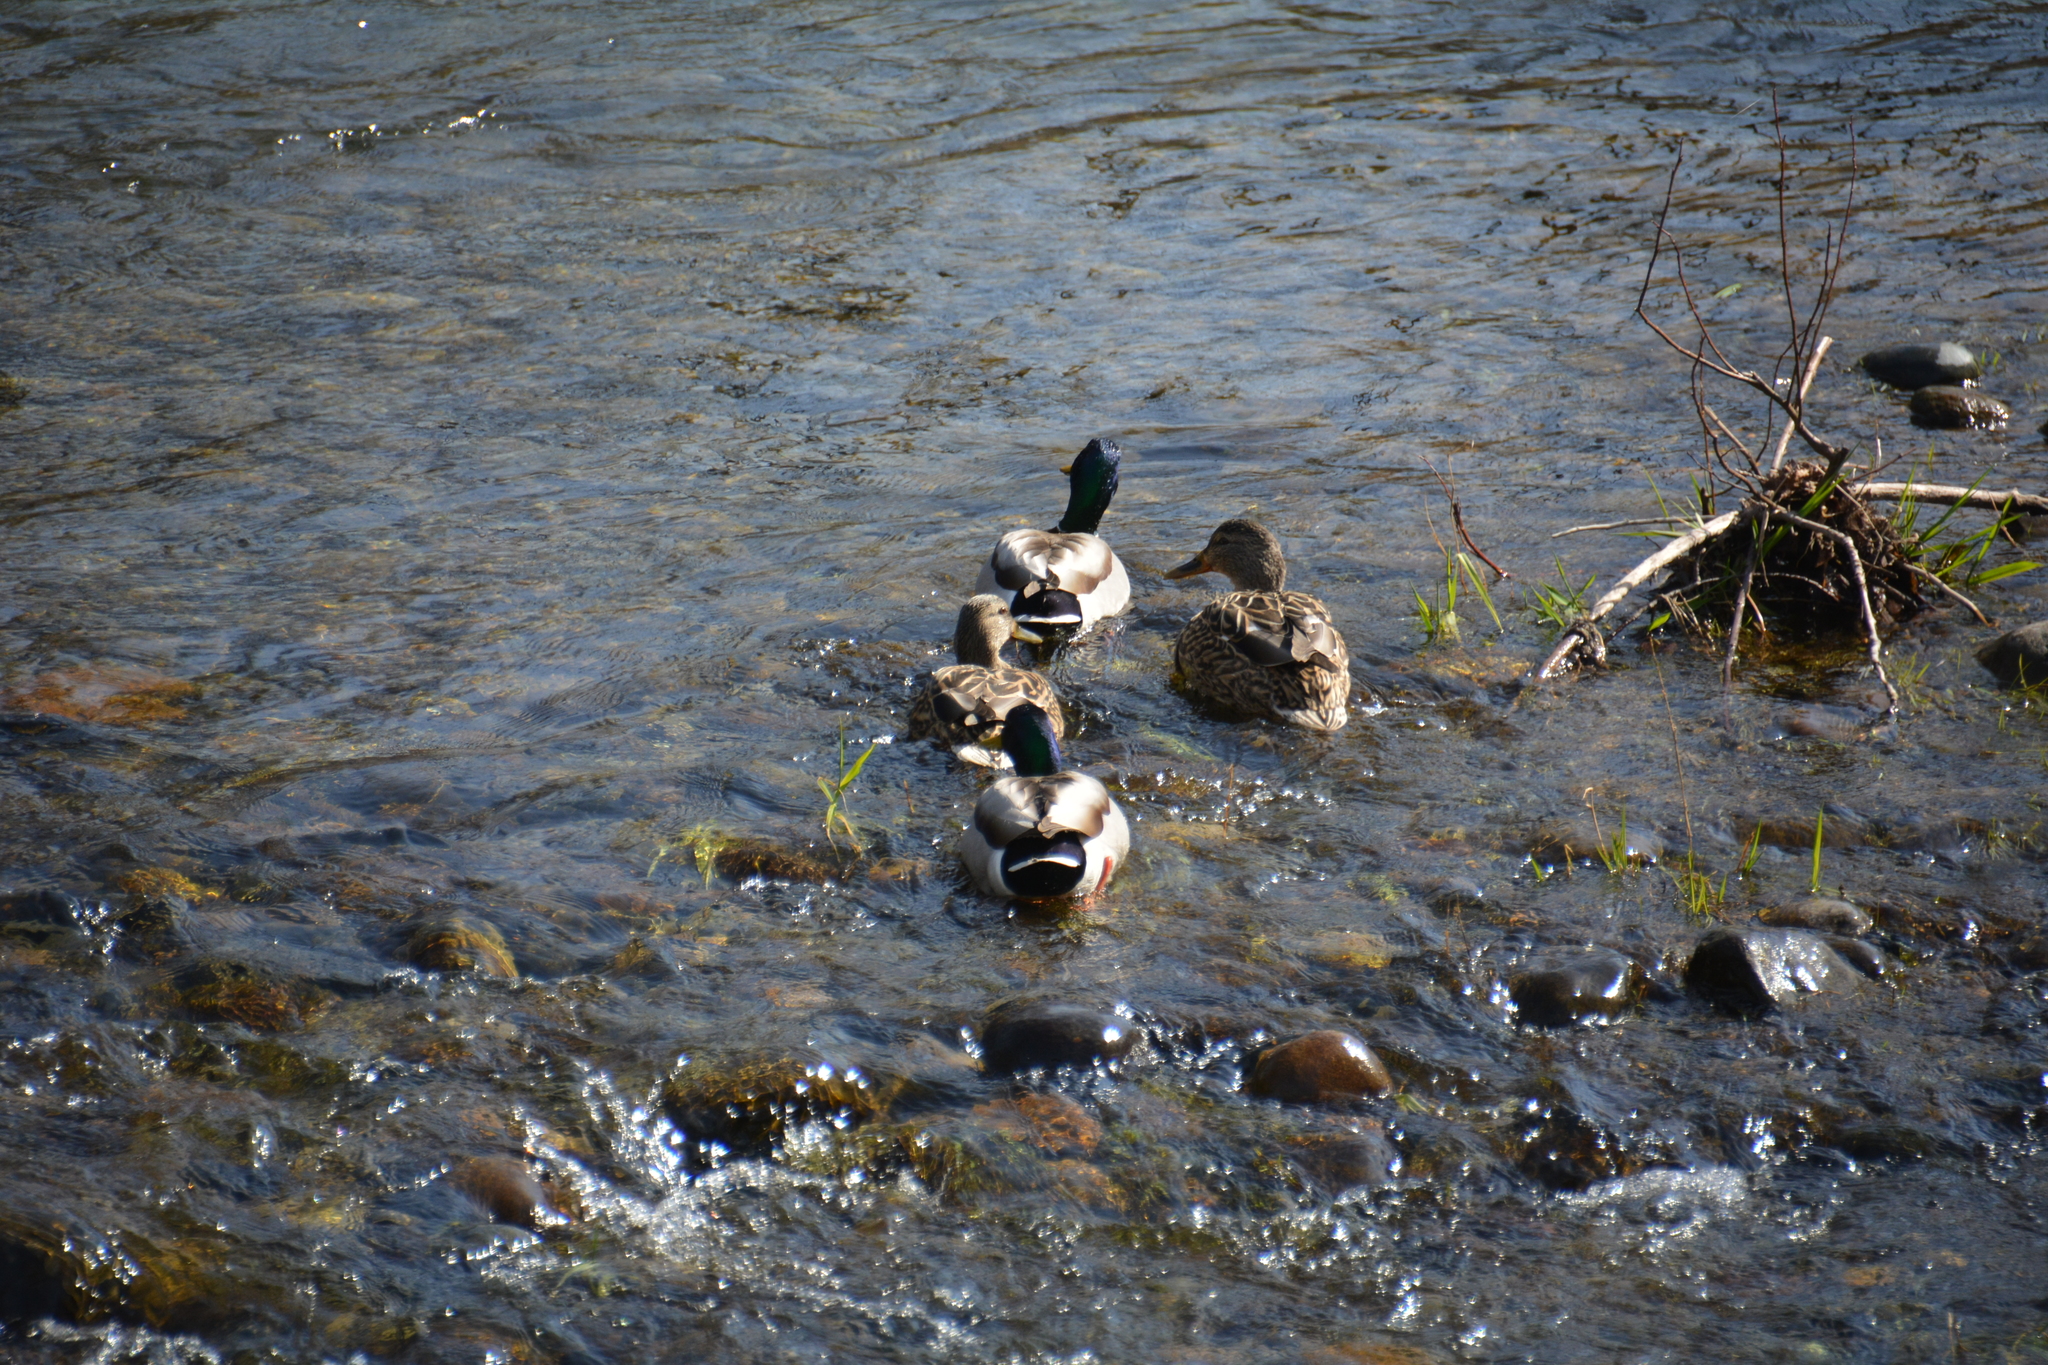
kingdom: Animalia
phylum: Chordata
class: Aves
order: Anseriformes
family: Anatidae
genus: Anas
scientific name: Anas platyrhynchos
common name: Mallard
